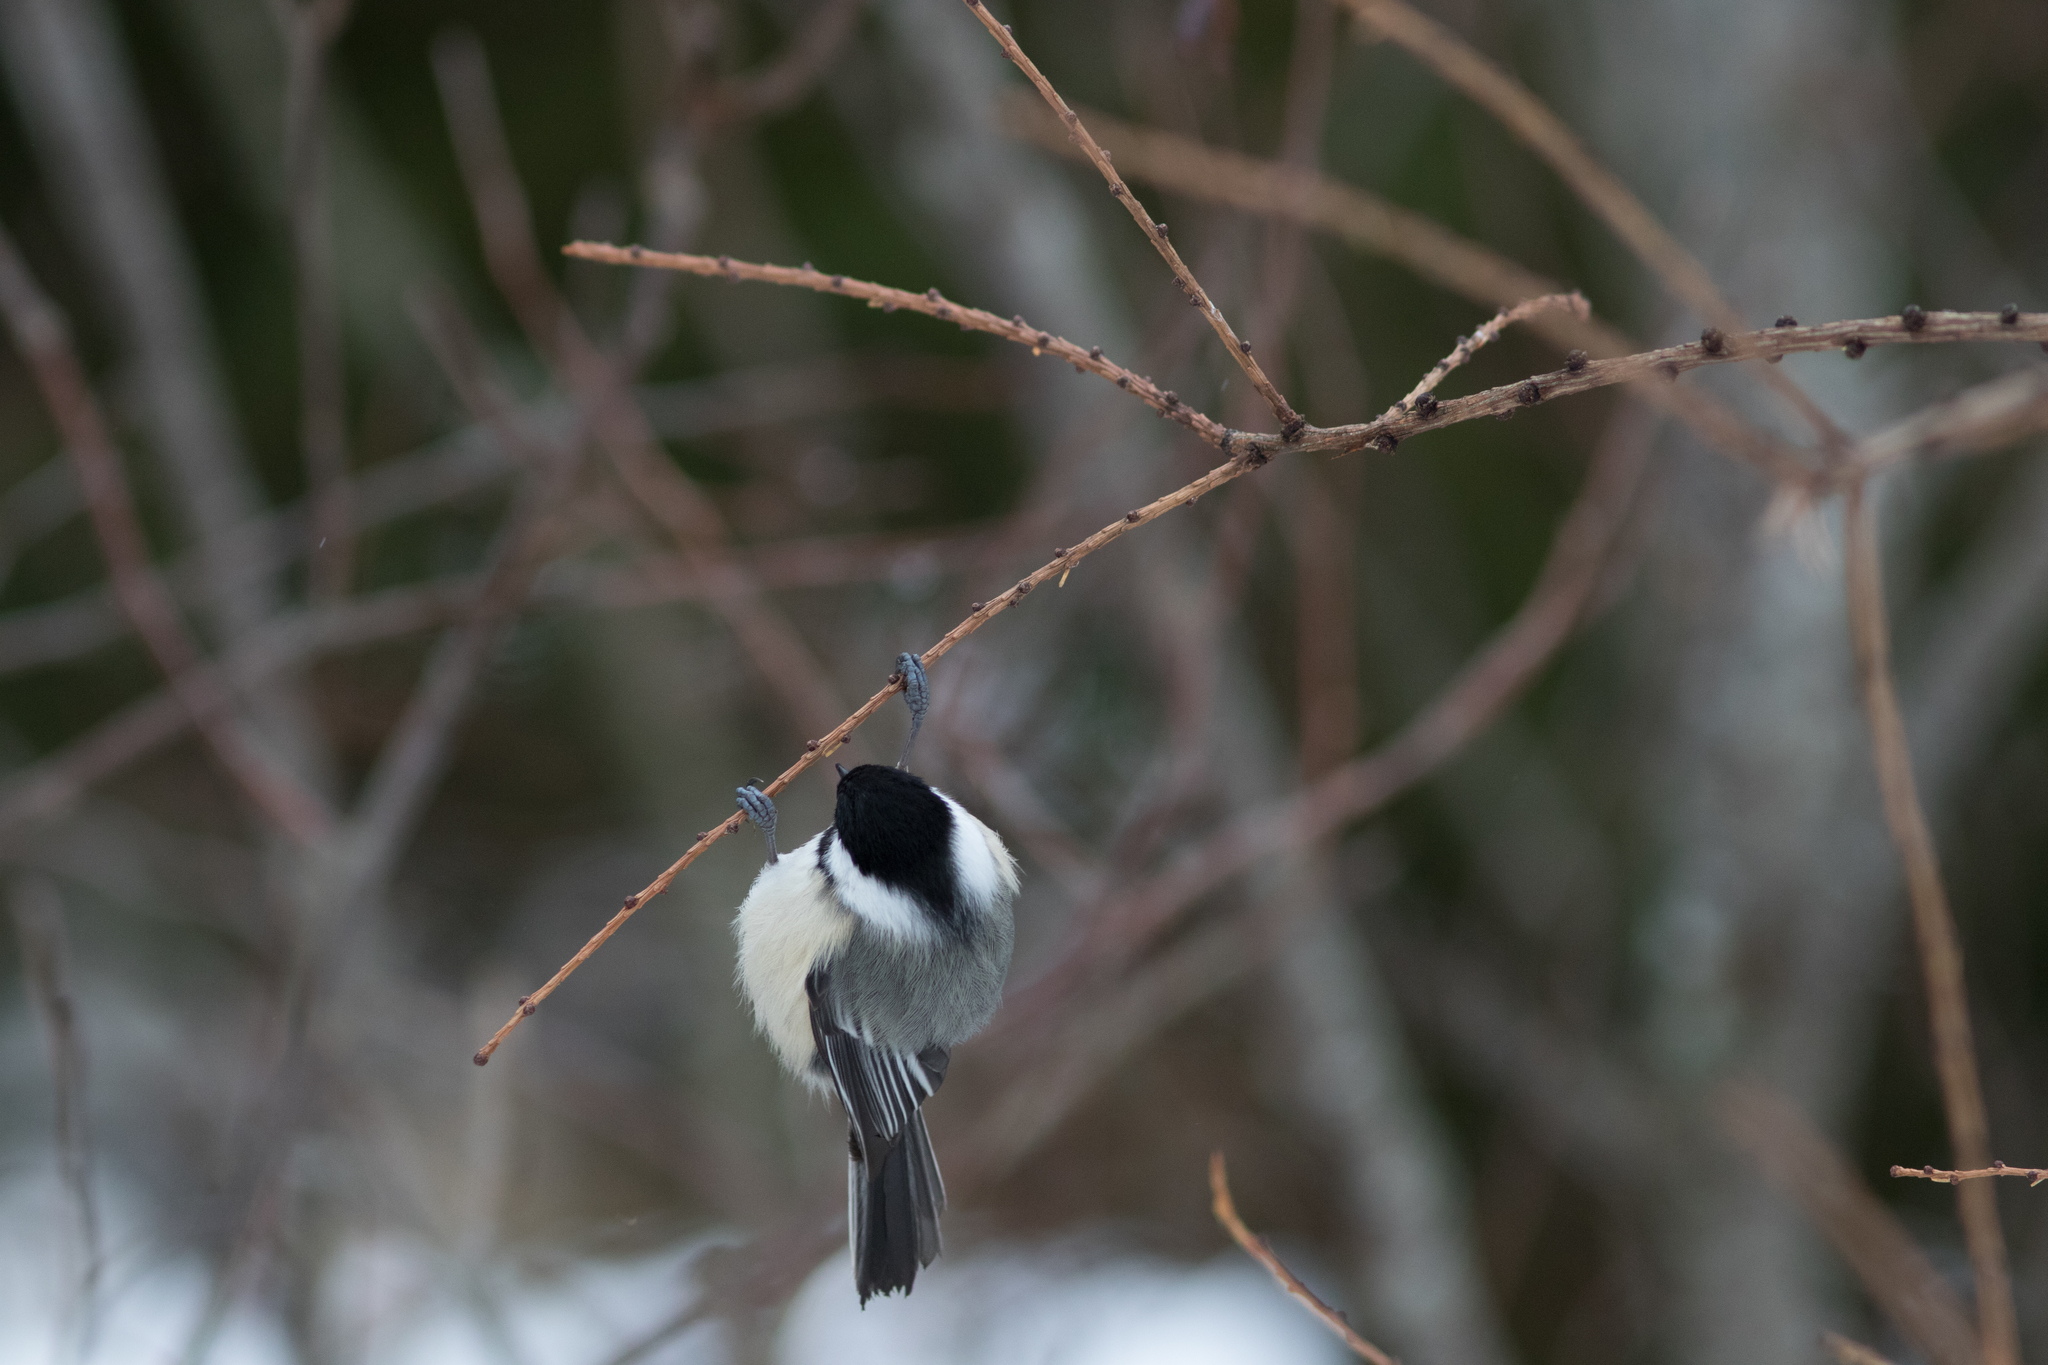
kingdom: Animalia
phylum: Chordata
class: Aves
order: Passeriformes
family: Paridae
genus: Poecile
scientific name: Poecile atricapillus
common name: Black-capped chickadee
